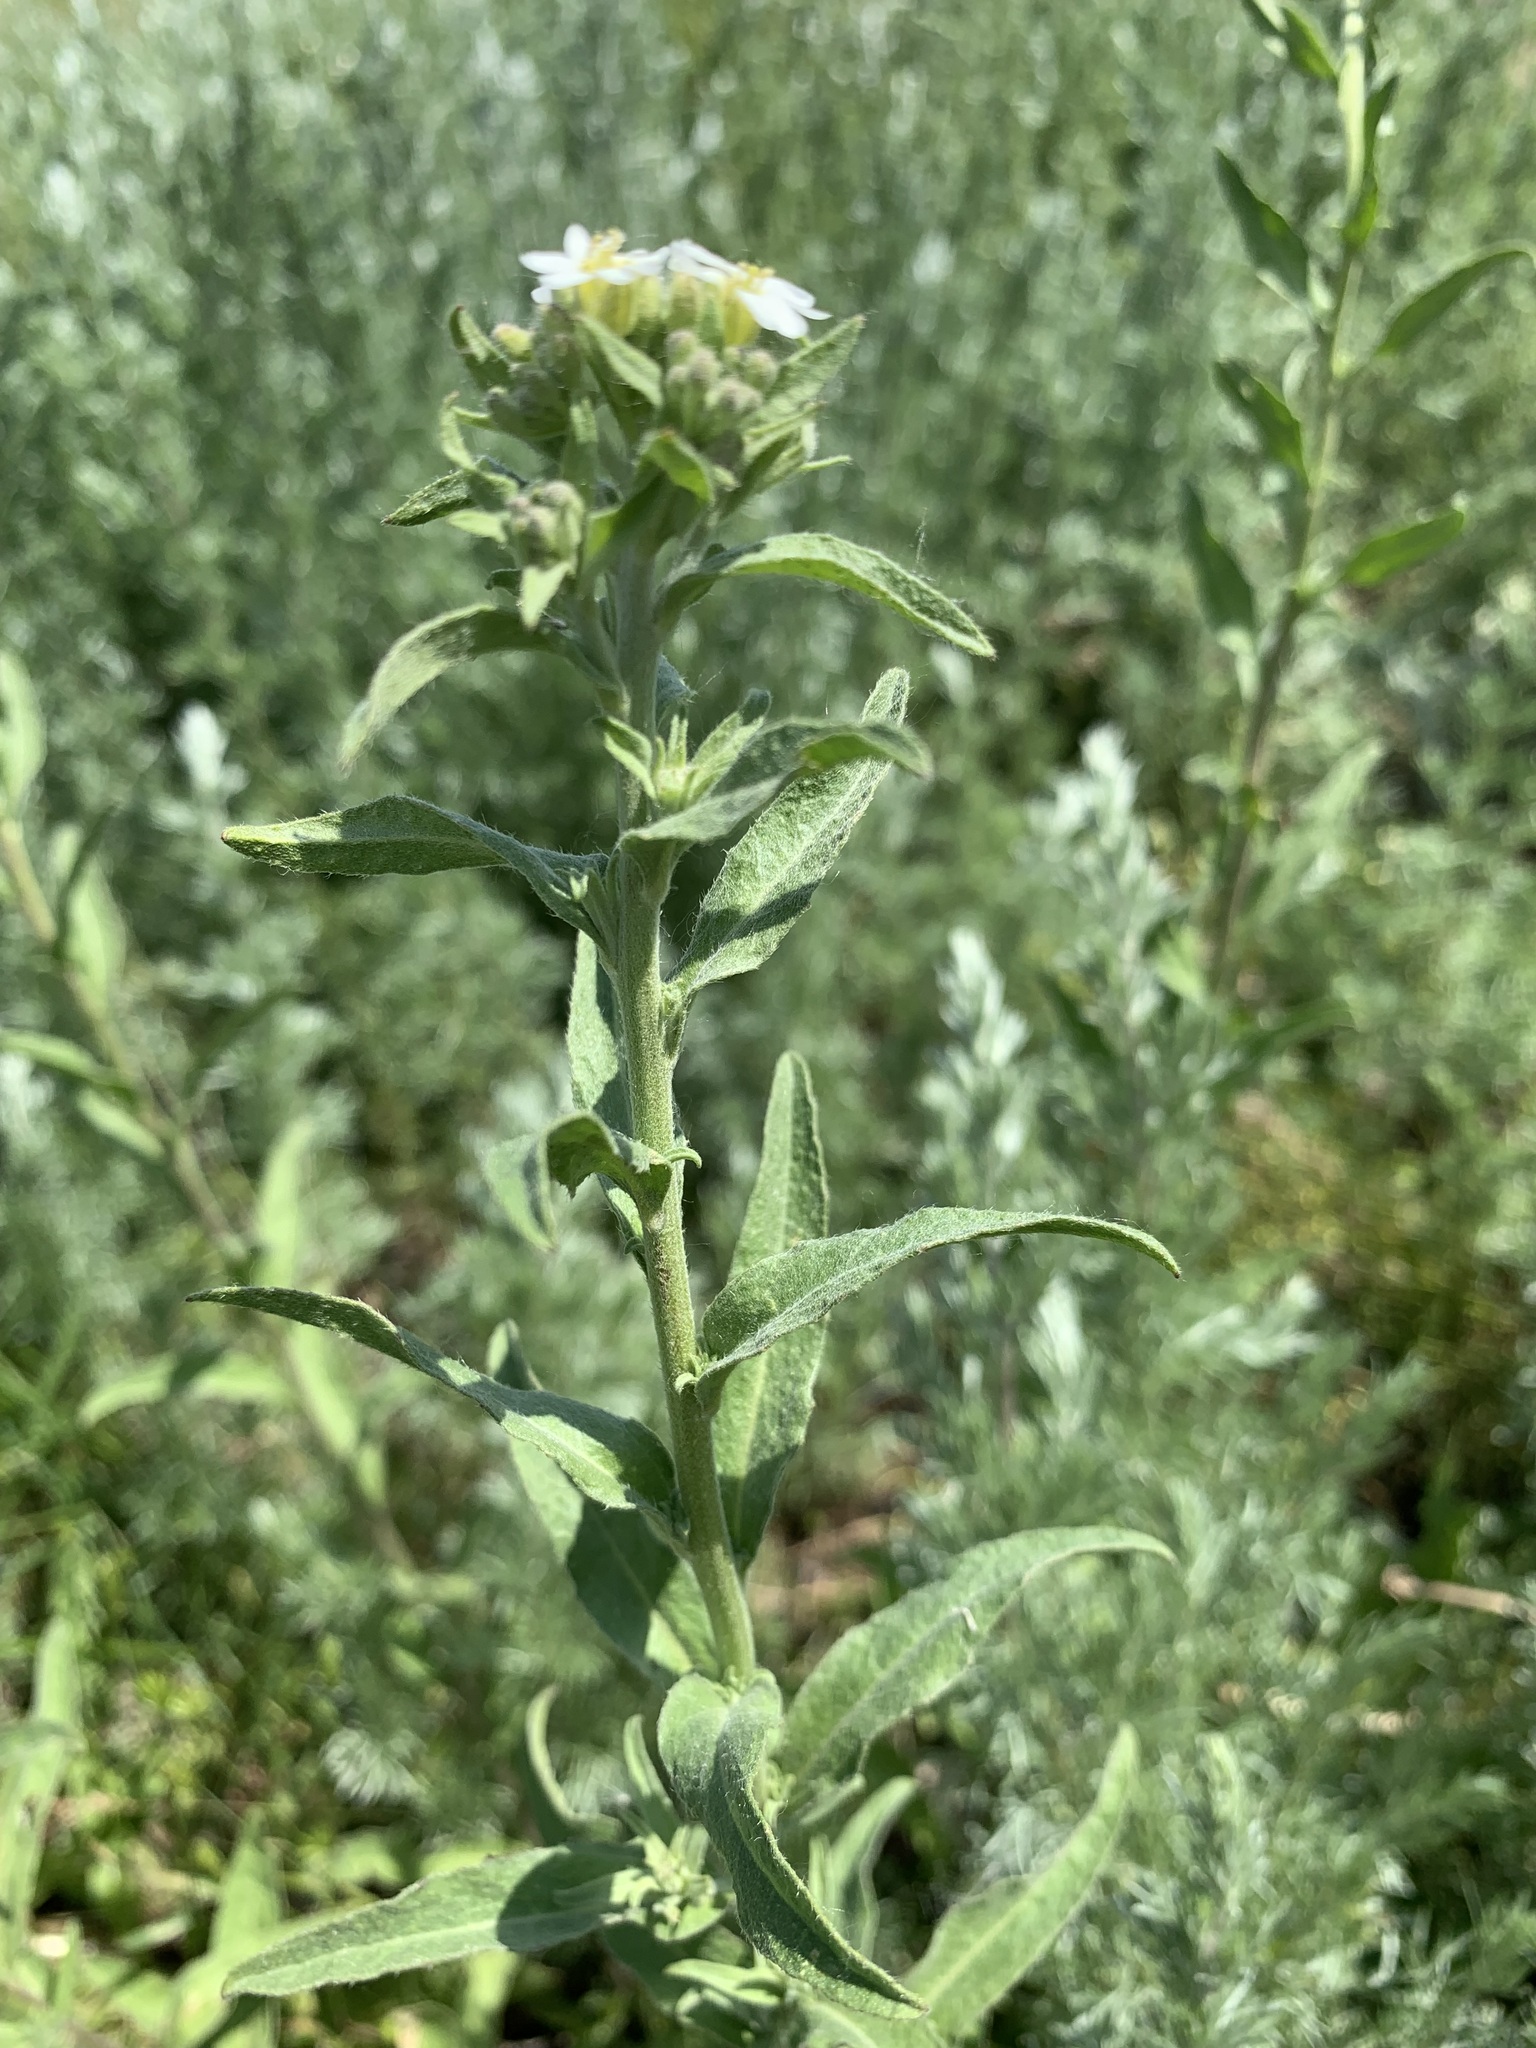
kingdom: Plantae
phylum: Tracheophyta
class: Magnoliopsida
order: Brassicales
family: Brassicaceae
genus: Berteroa
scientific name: Berteroa incana
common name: Hoary alison
